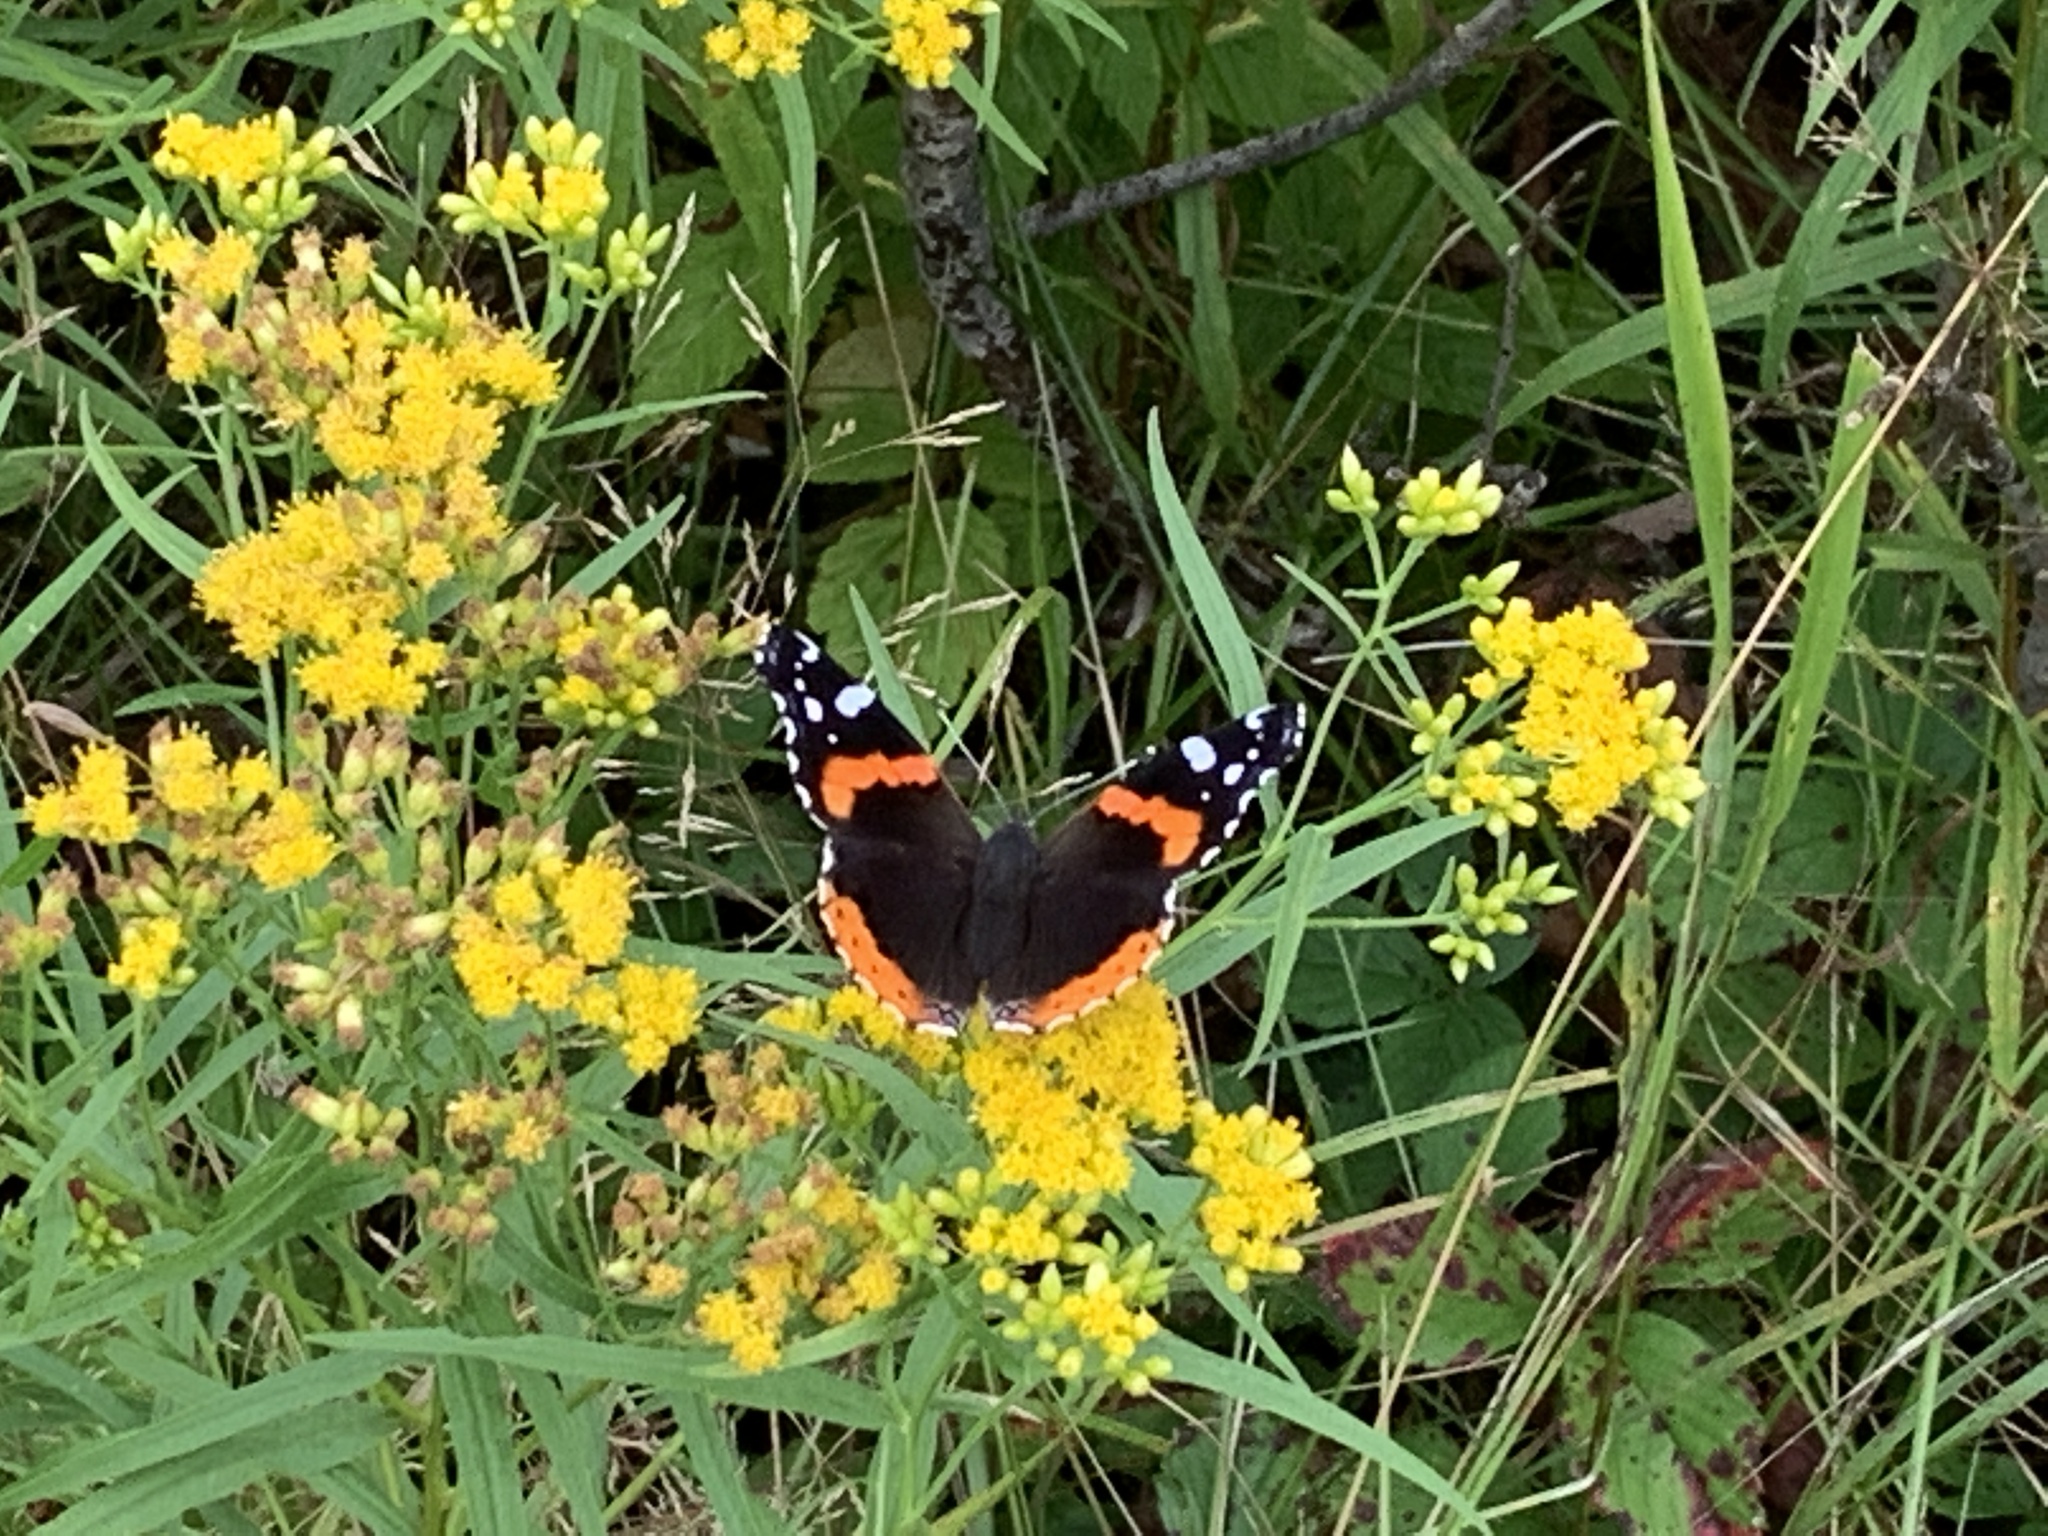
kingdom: Animalia
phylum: Arthropoda
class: Insecta
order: Lepidoptera
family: Nymphalidae
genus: Vanessa
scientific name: Vanessa atalanta
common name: Red admiral
